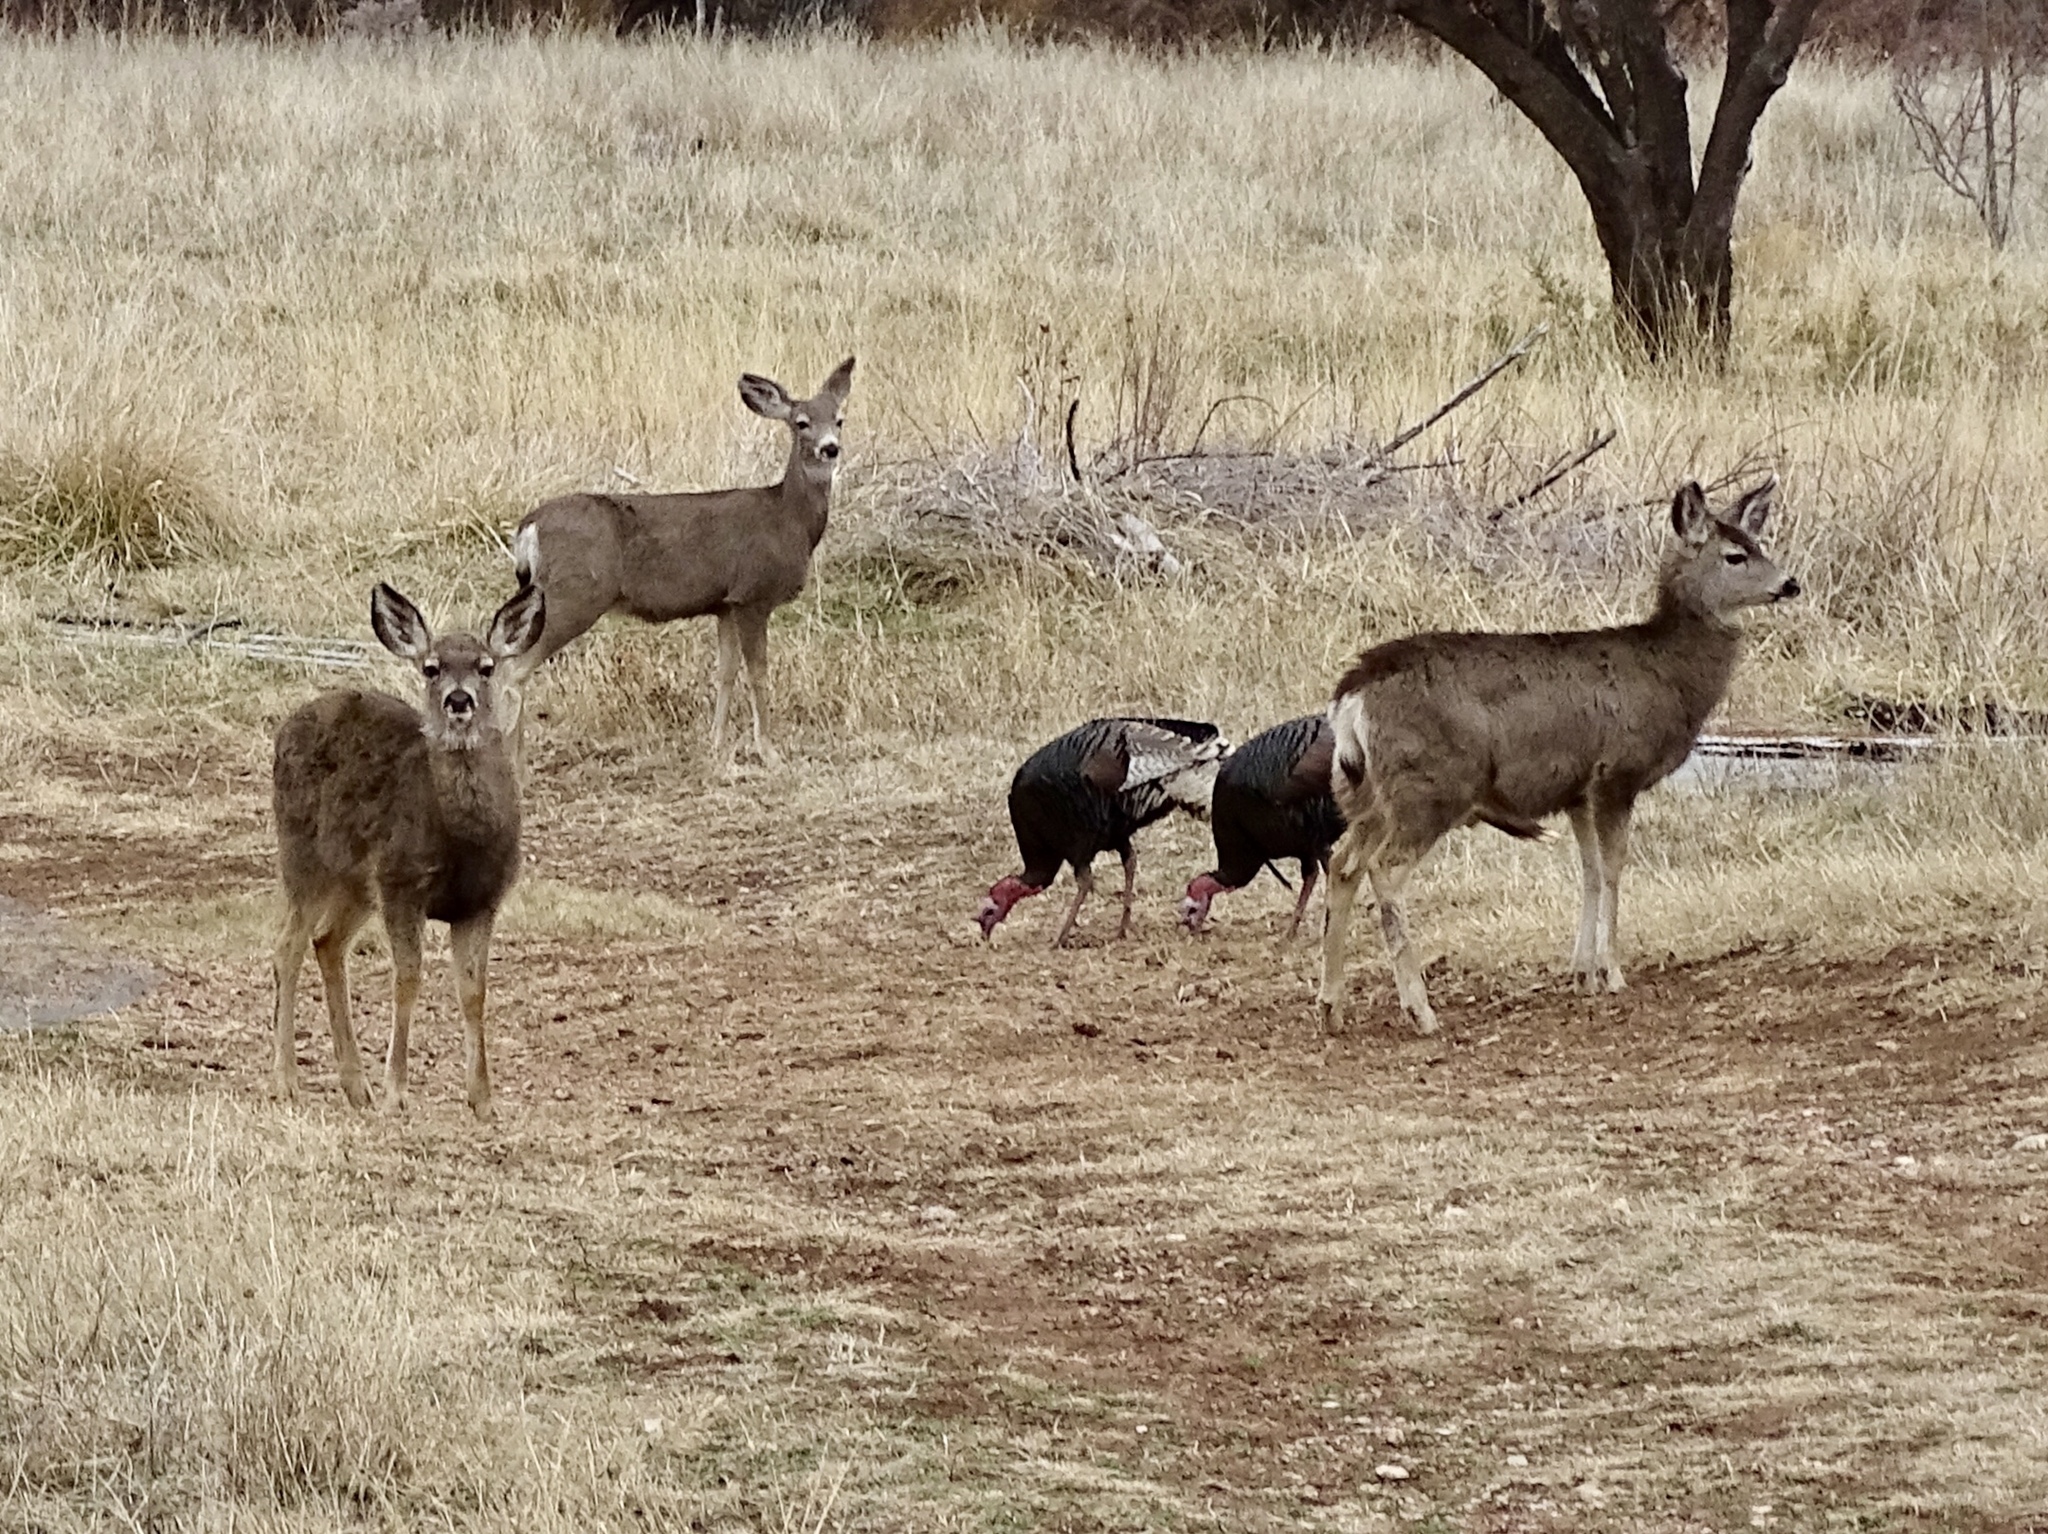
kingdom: Animalia
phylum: Chordata
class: Mammalia
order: Artiodactyla
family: Cervidae
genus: Odocoileus
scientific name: Odocoileus hemionus
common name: Mule deer
